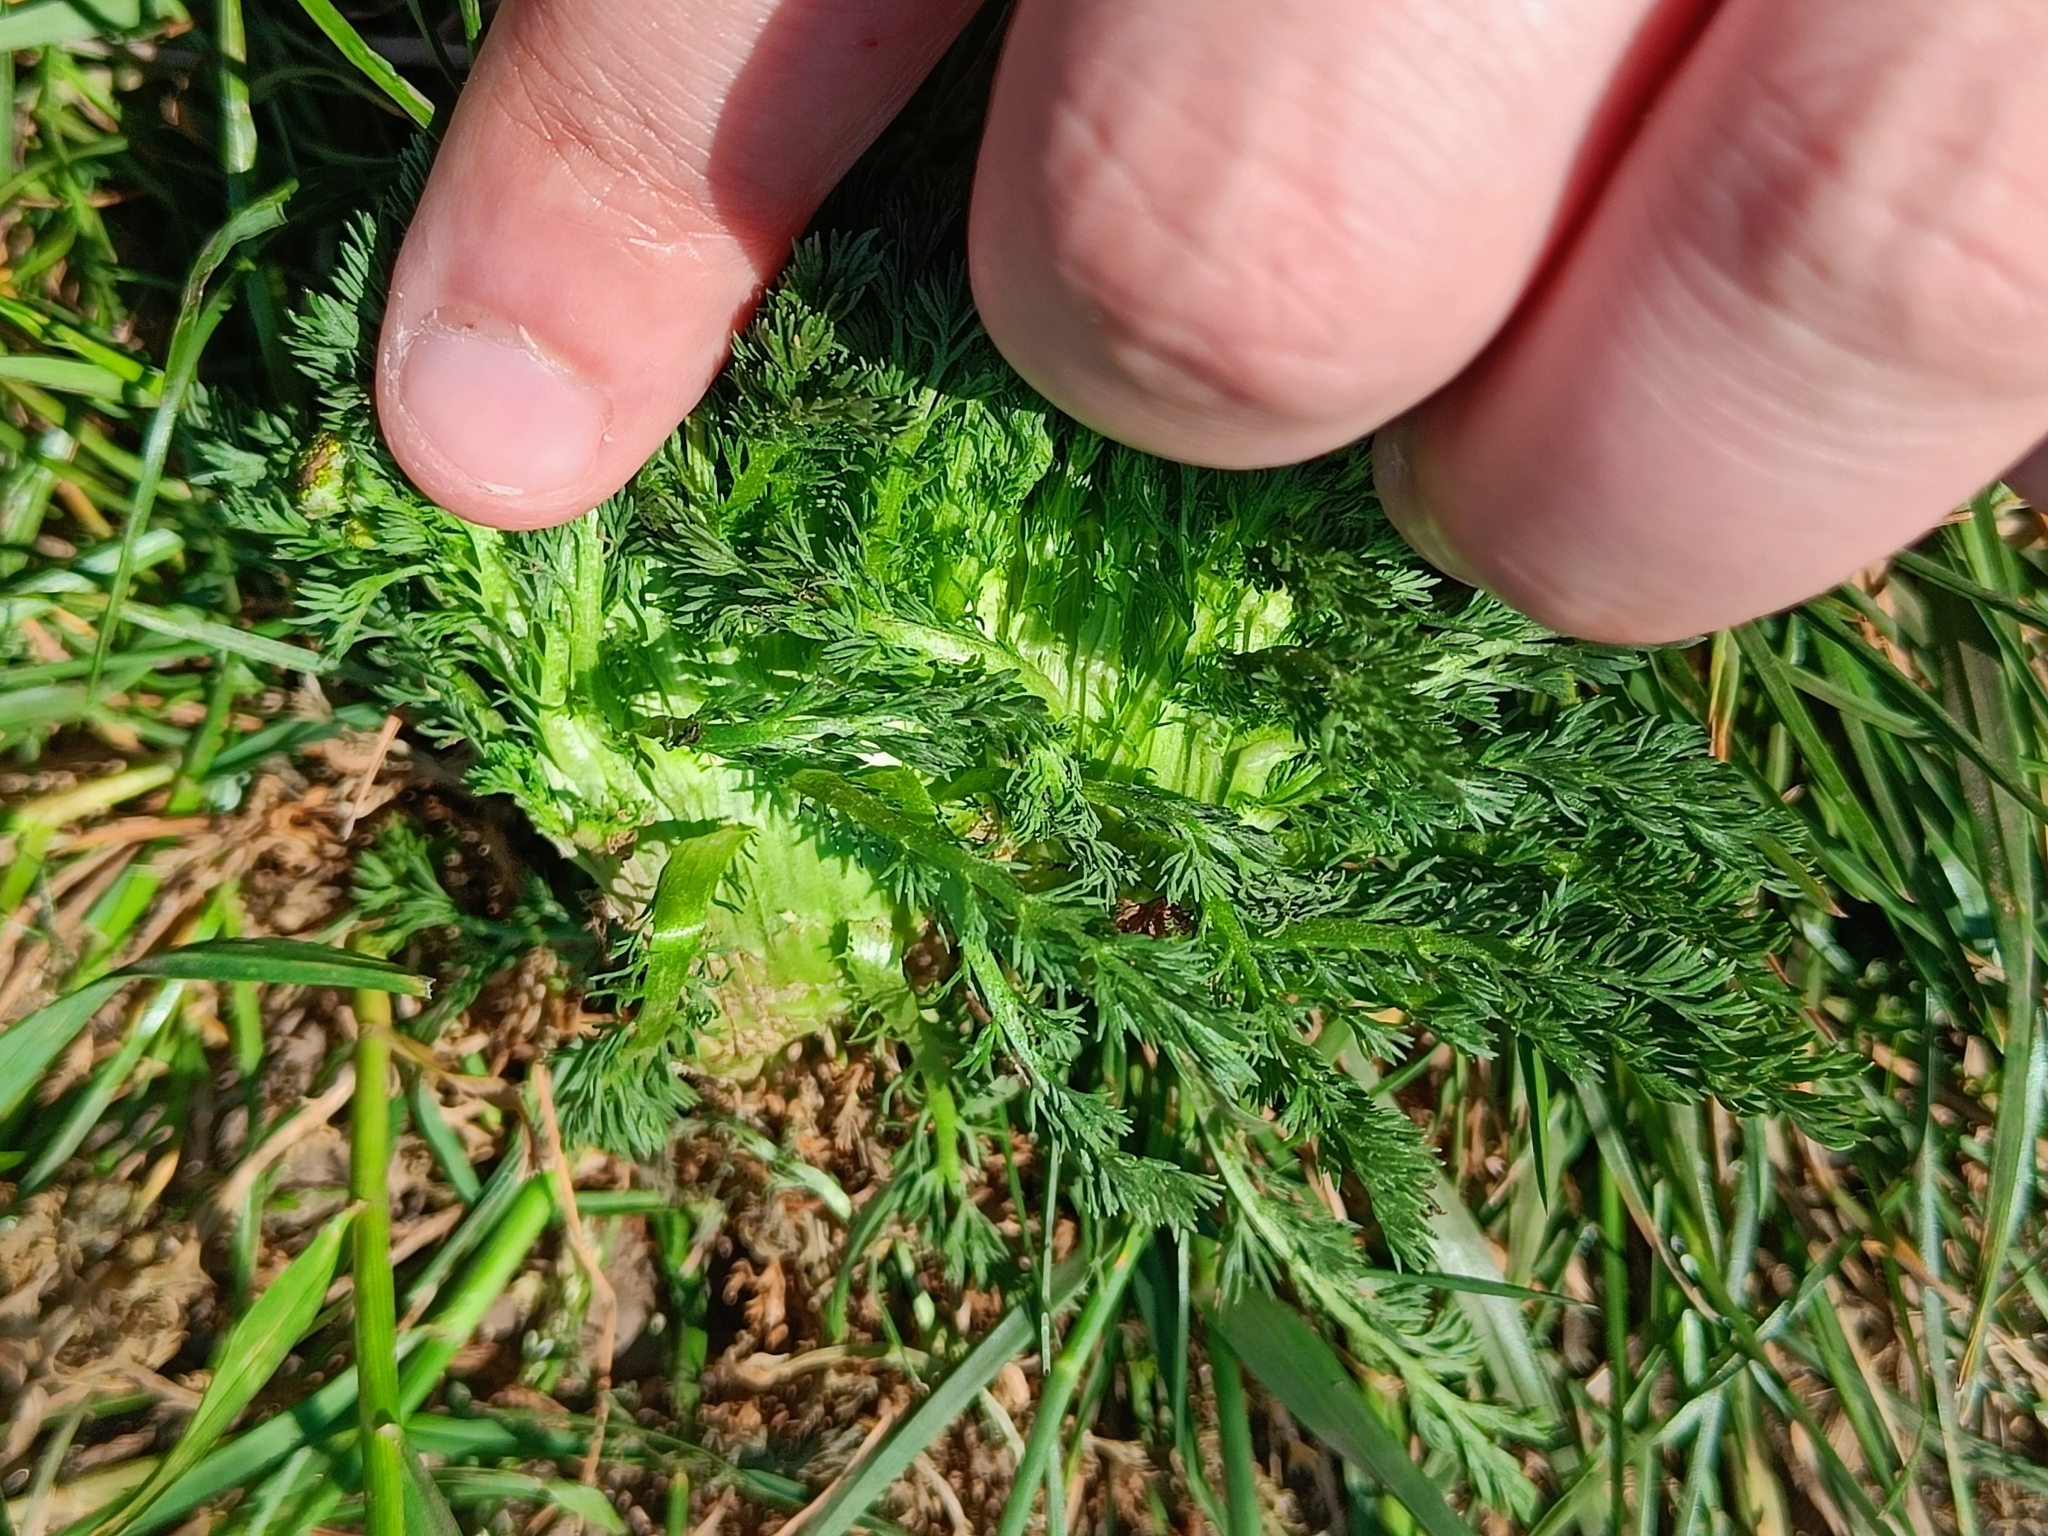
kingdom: Plantae
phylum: Tracheophyta
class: Magnoliopsida
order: Asterales
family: Asteraceae
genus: Matricaria
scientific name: Matricaria discoidea
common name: Disc mayweed
